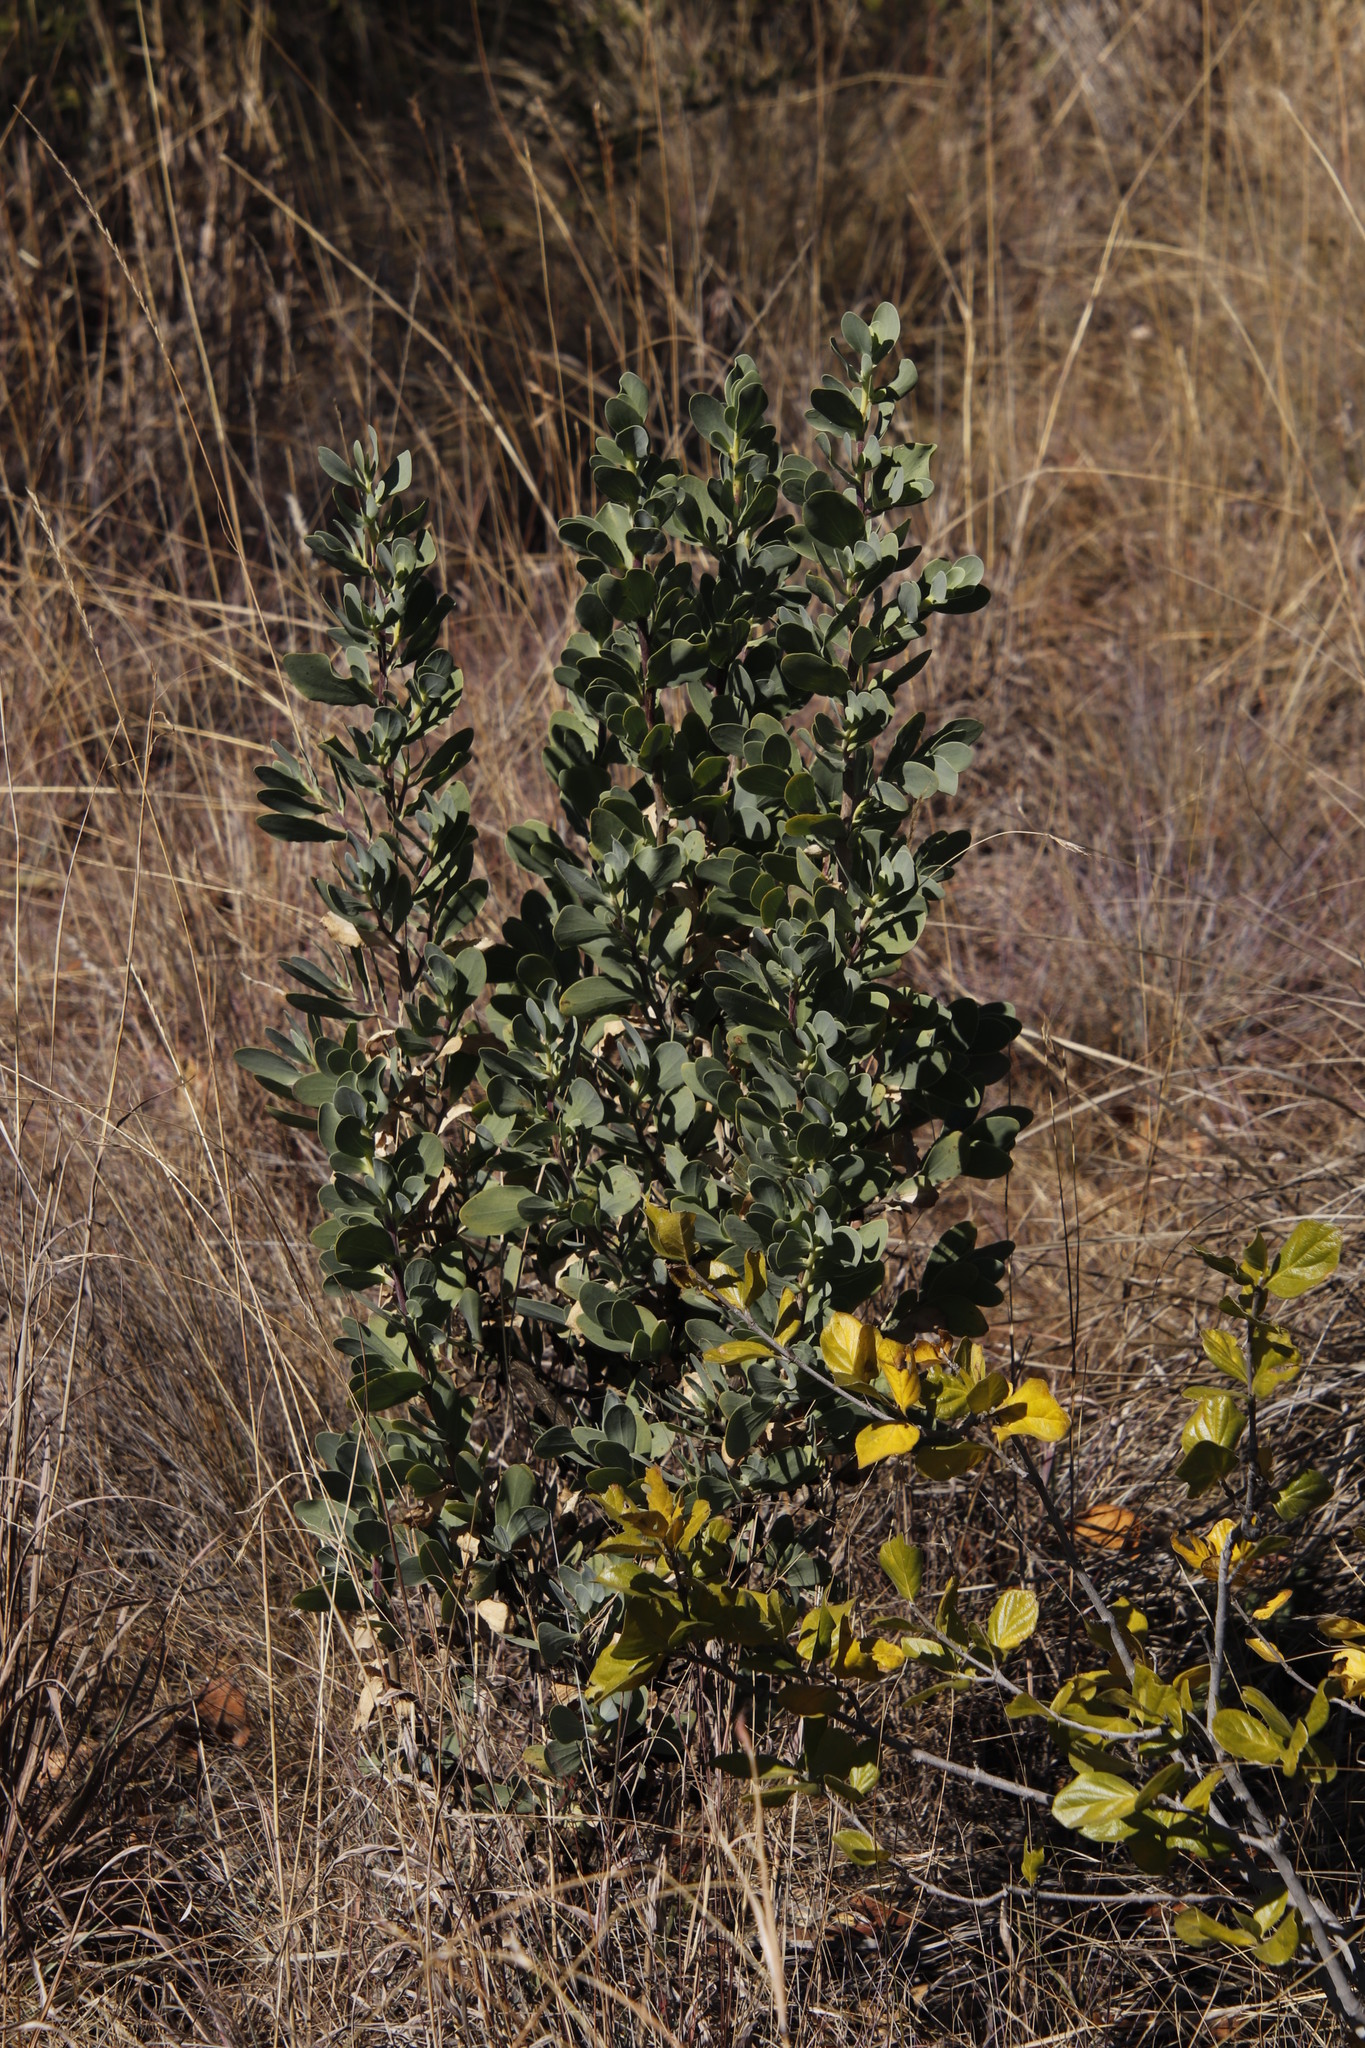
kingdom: Plantae
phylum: Tracheophyta
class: Magnoliopsida
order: Asterales
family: Asteraceae
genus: Lopholaena
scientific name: Lopholaena coriifolia
